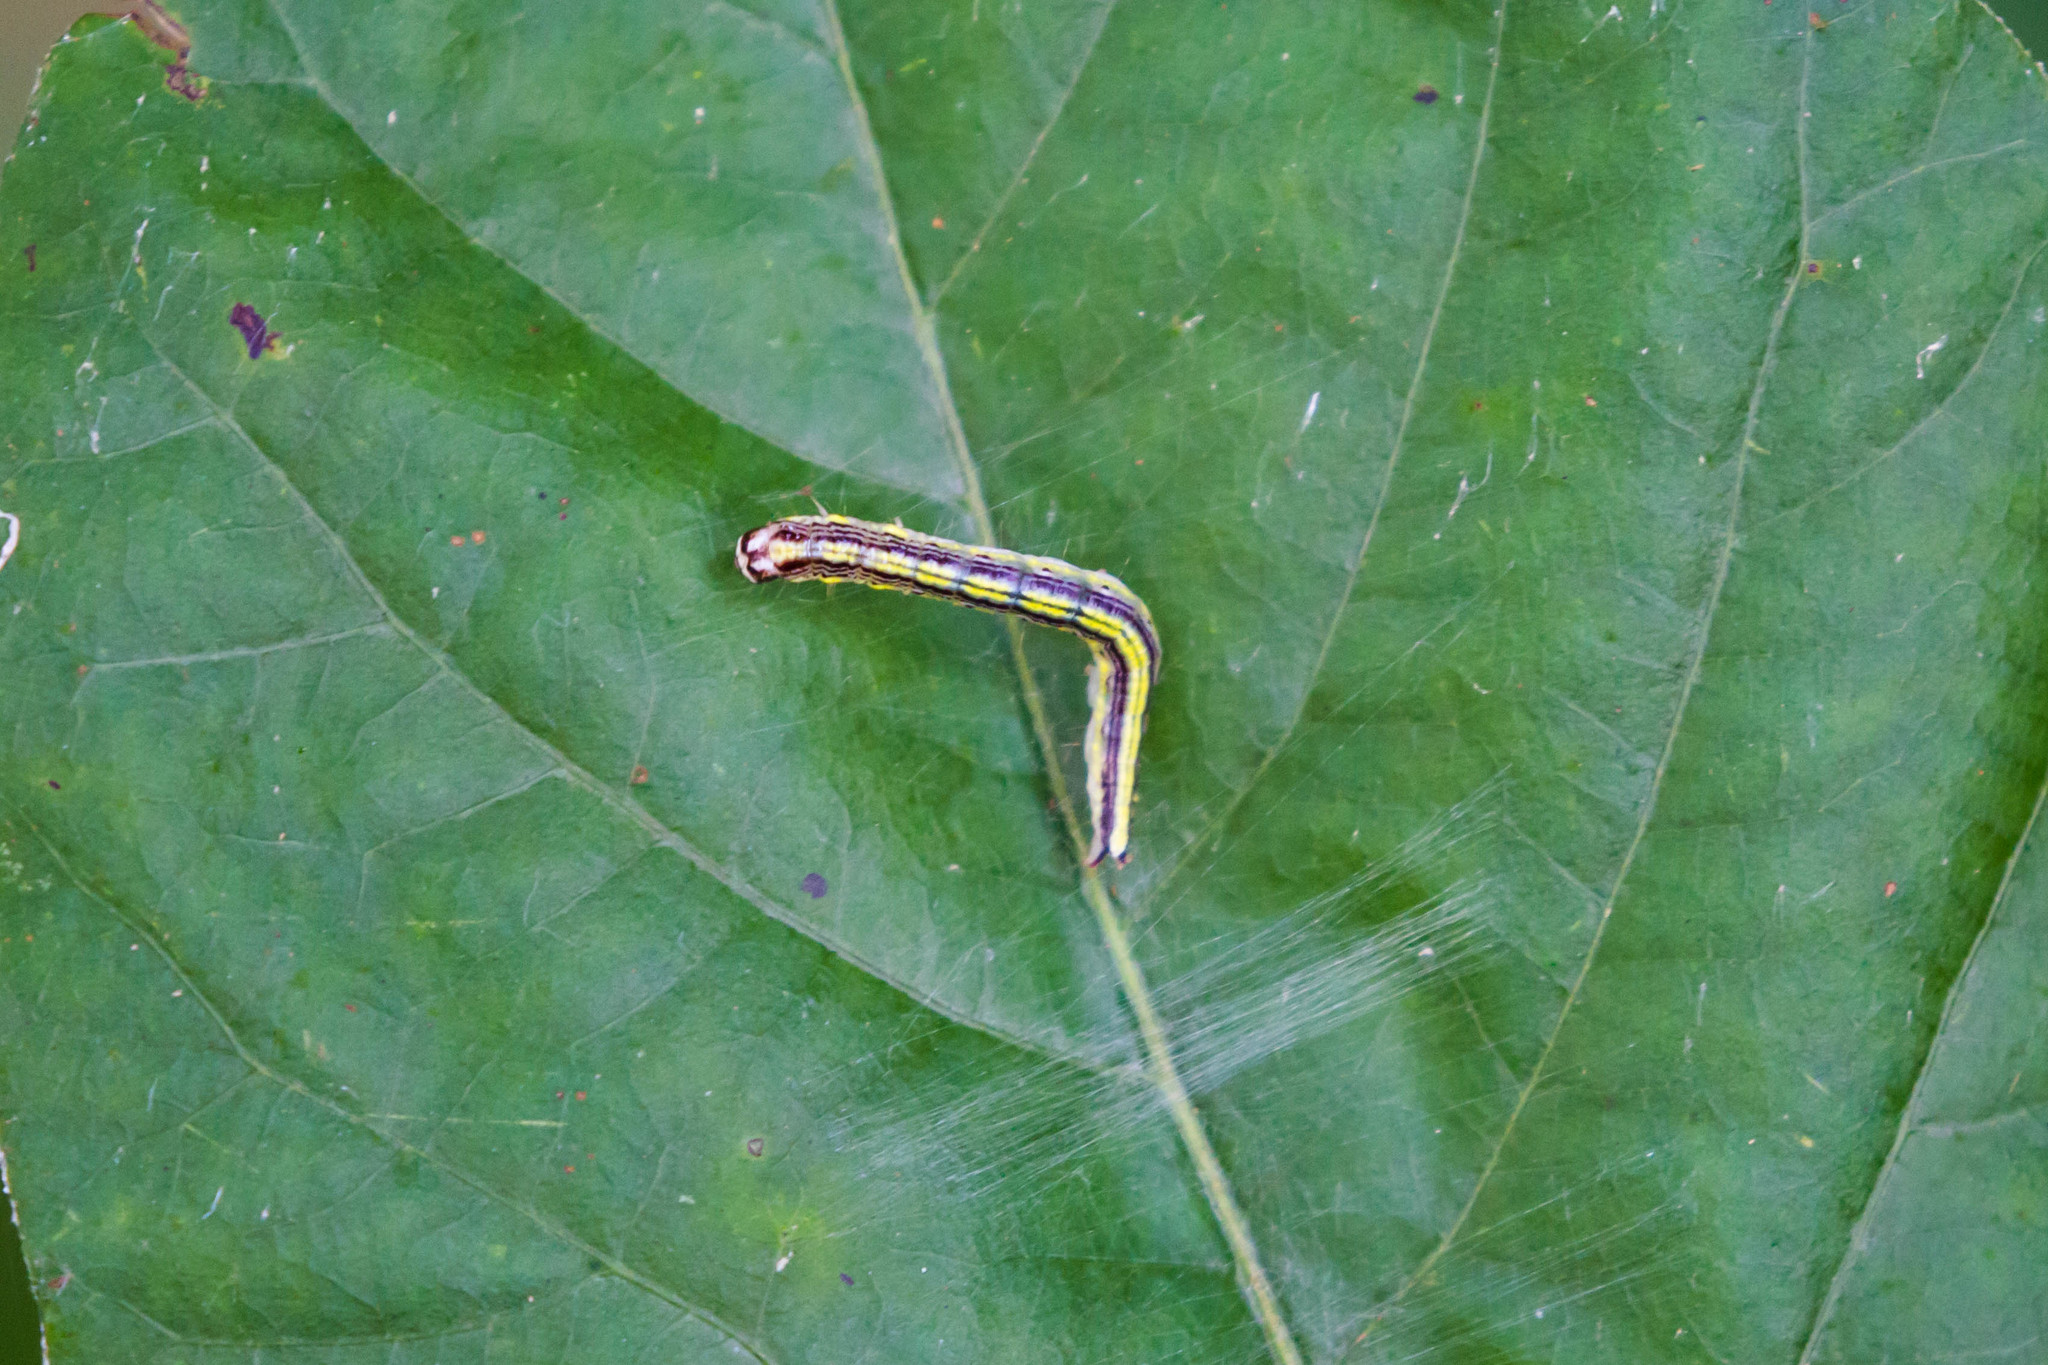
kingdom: Animalia
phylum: Arthropoda
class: Insecta
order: Lepidoptera
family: Pyralidae
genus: Epipaschia
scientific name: Epipaschia superatalis
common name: Dimorphic macalla moth
